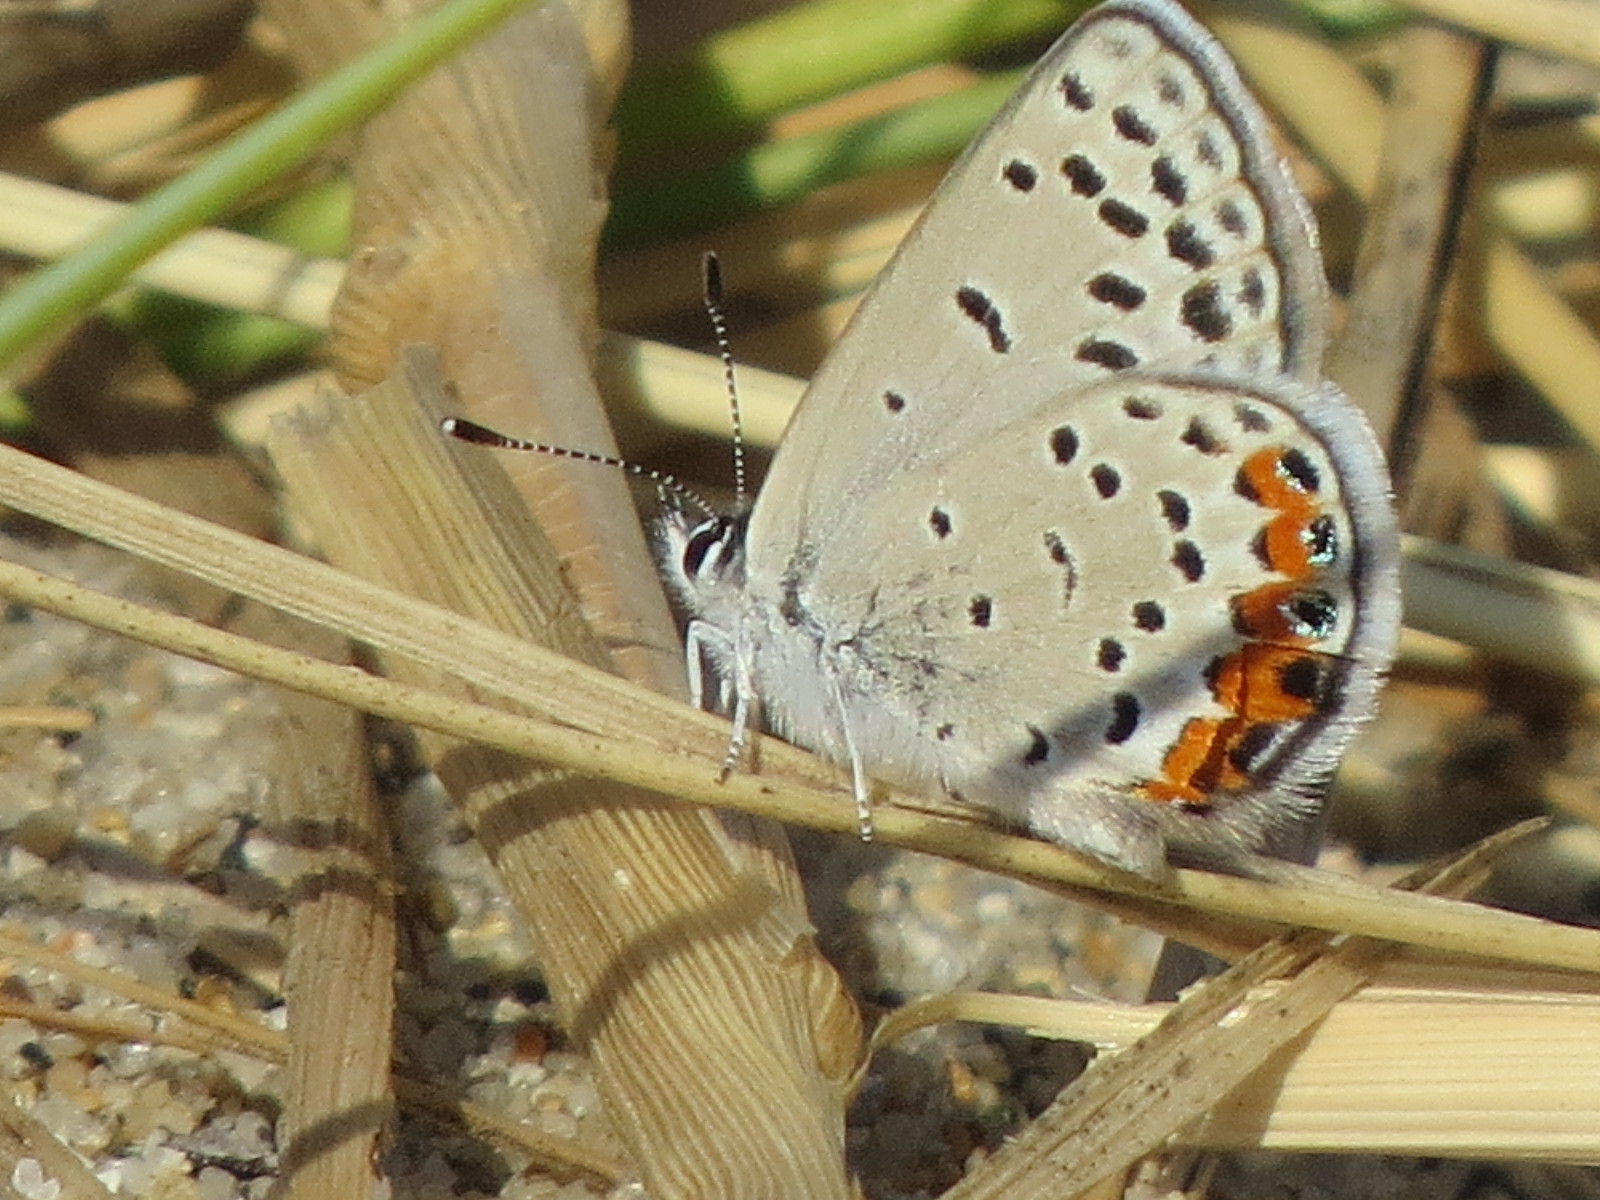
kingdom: Animalia
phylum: Arthropoda
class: Insecta
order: Lepidoptera
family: Lycaenidae
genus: Icaricia
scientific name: Icaricia acmon
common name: Acmon blue
